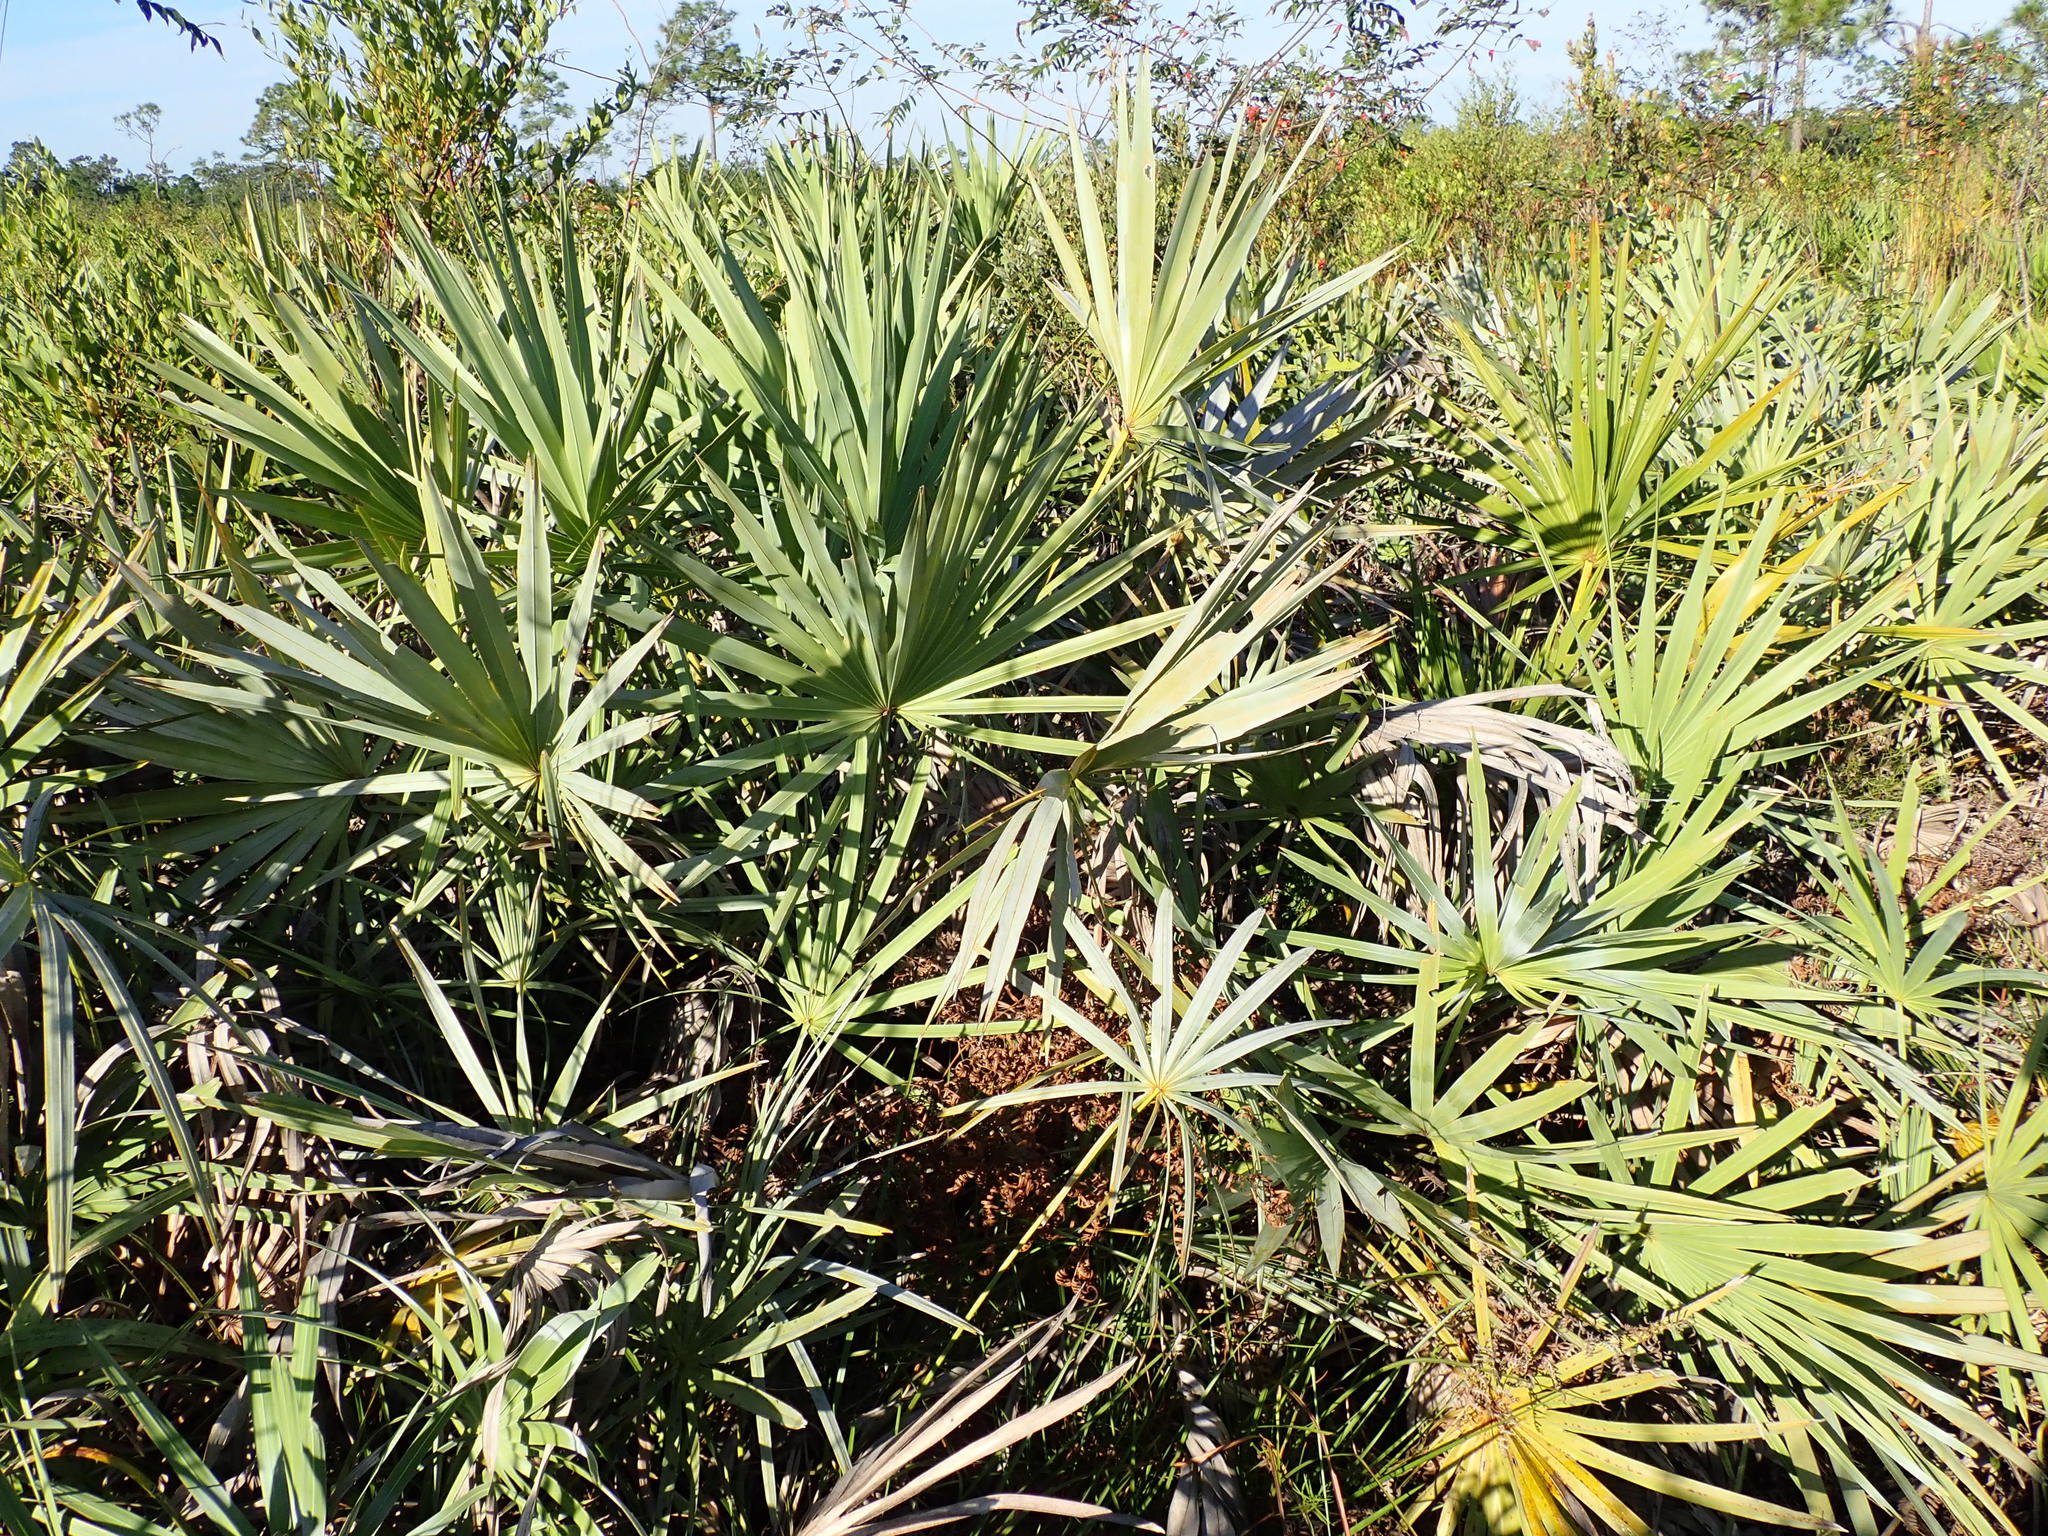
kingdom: Plantae
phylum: Tracheophyta
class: Liliopsida
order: Arecales
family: Arecaceae
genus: Serenoa
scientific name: Serenoa repens
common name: Saw-palmetto
